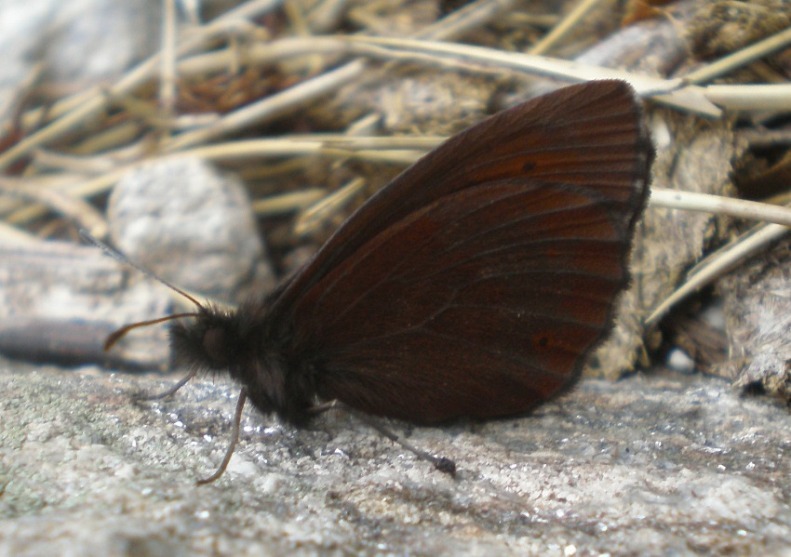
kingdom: Animalia
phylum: Arthropoda
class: Insecta
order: Lepidoptera
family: Nymphalidae
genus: Erebia
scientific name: Erebia euryale
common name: Large ringlet
